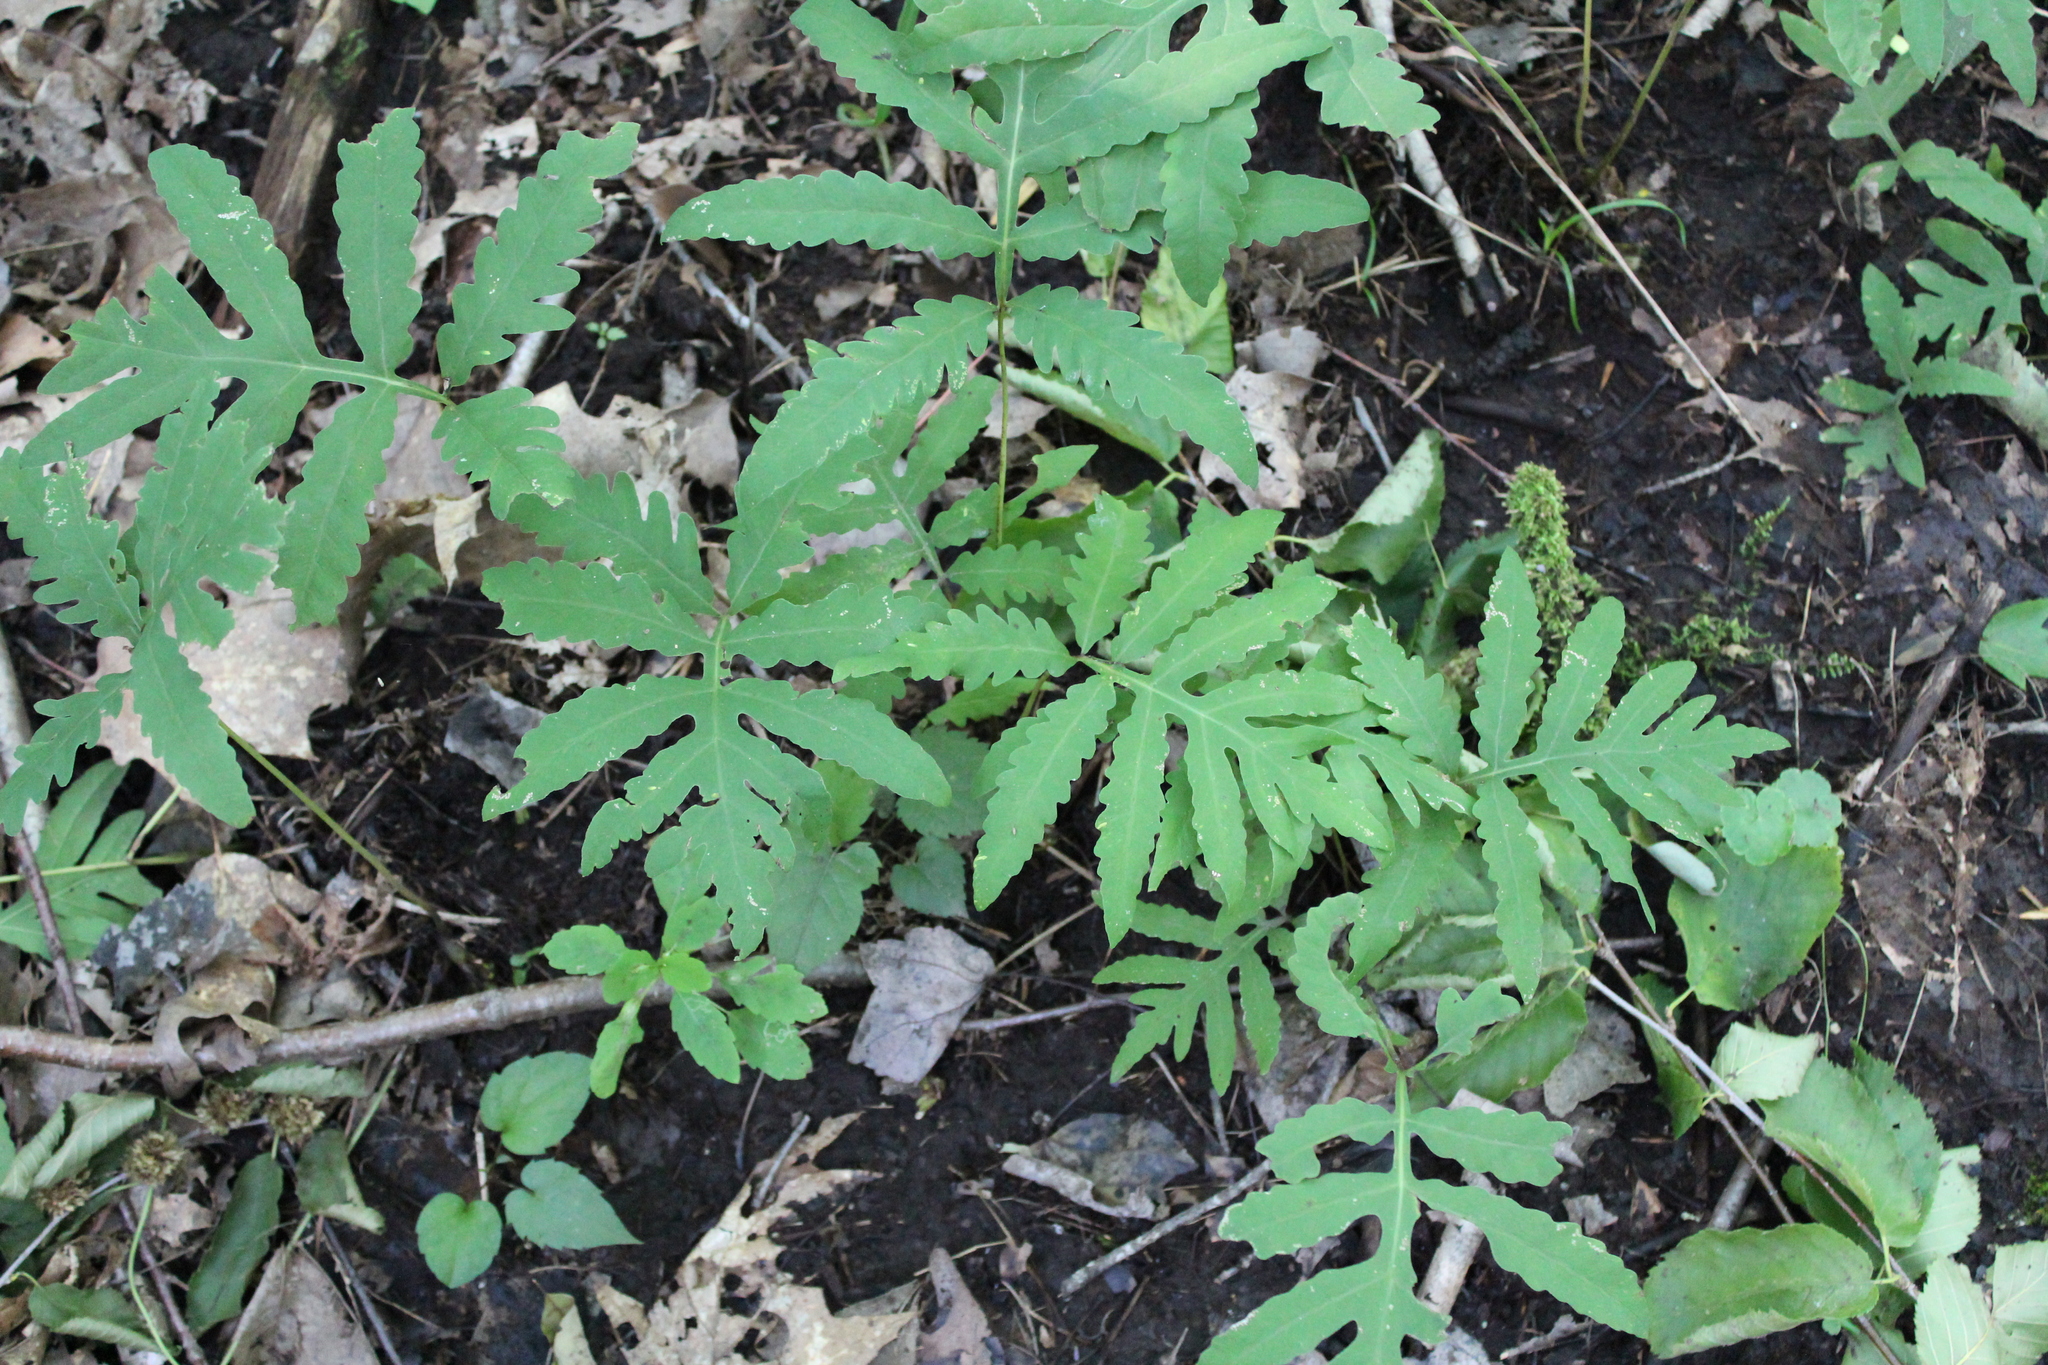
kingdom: Plantae
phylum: Tracheophyta
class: Polypodiopsida
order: Polypodiales
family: Onocleaceae
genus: Onoclea
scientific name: Onoclea sensibilis
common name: Sensitive fern
